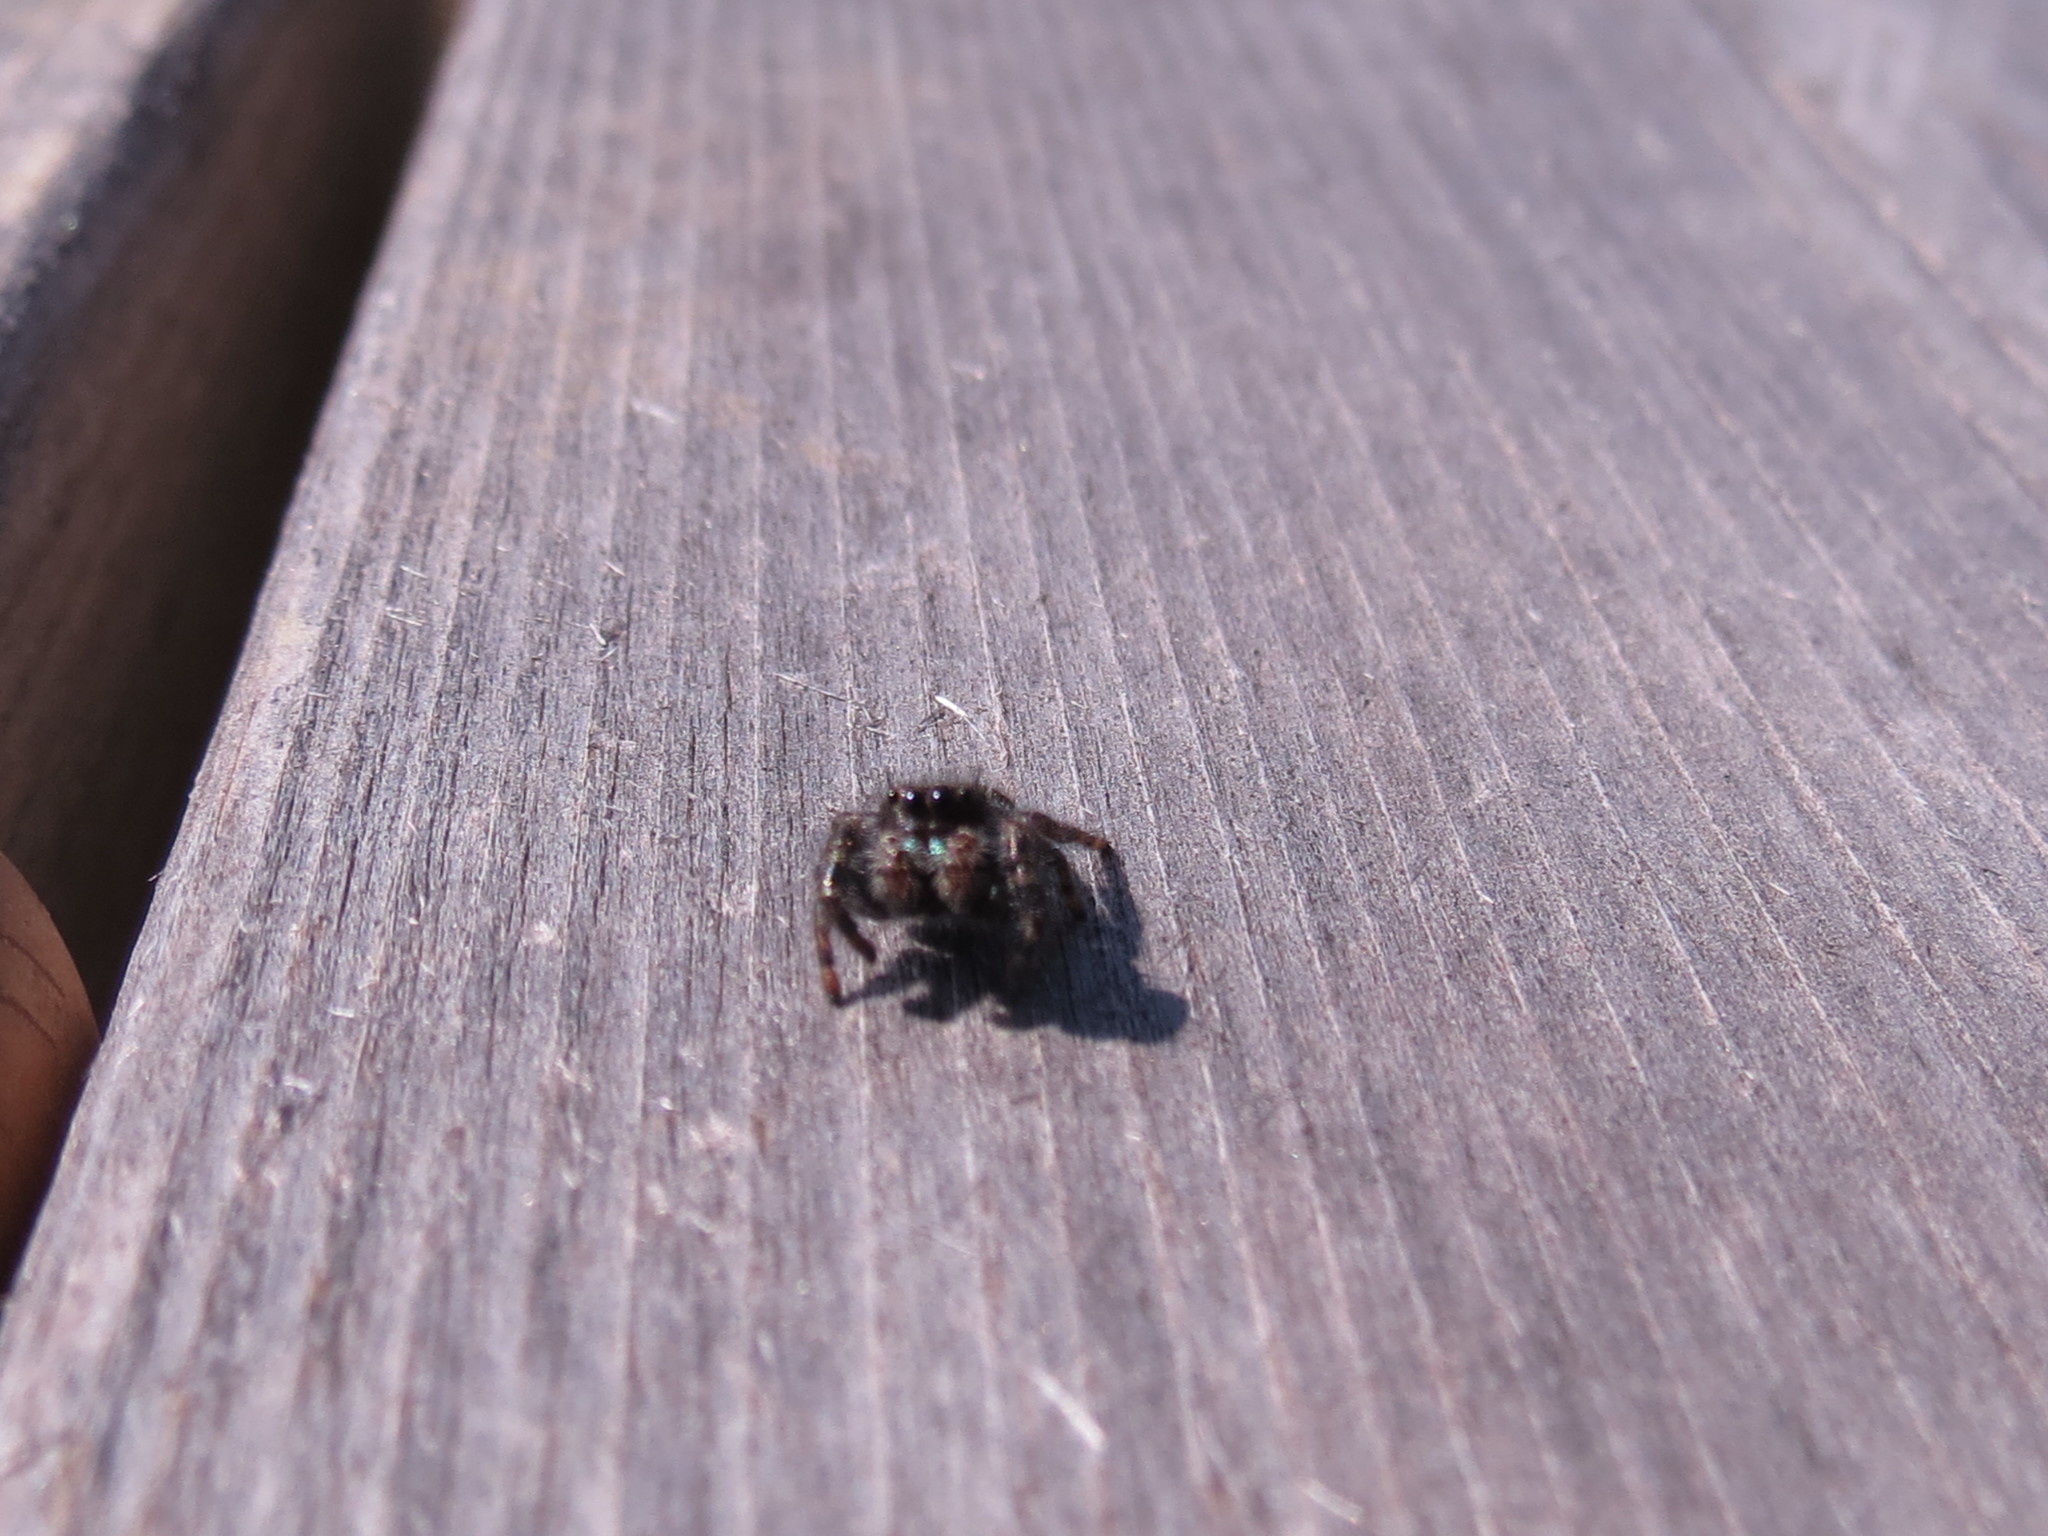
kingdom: Animalia
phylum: Arthropoda
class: Arachnida
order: Araneae
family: Salticidae
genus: Phidippus
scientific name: Phidippus audax
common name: Bold jumper
